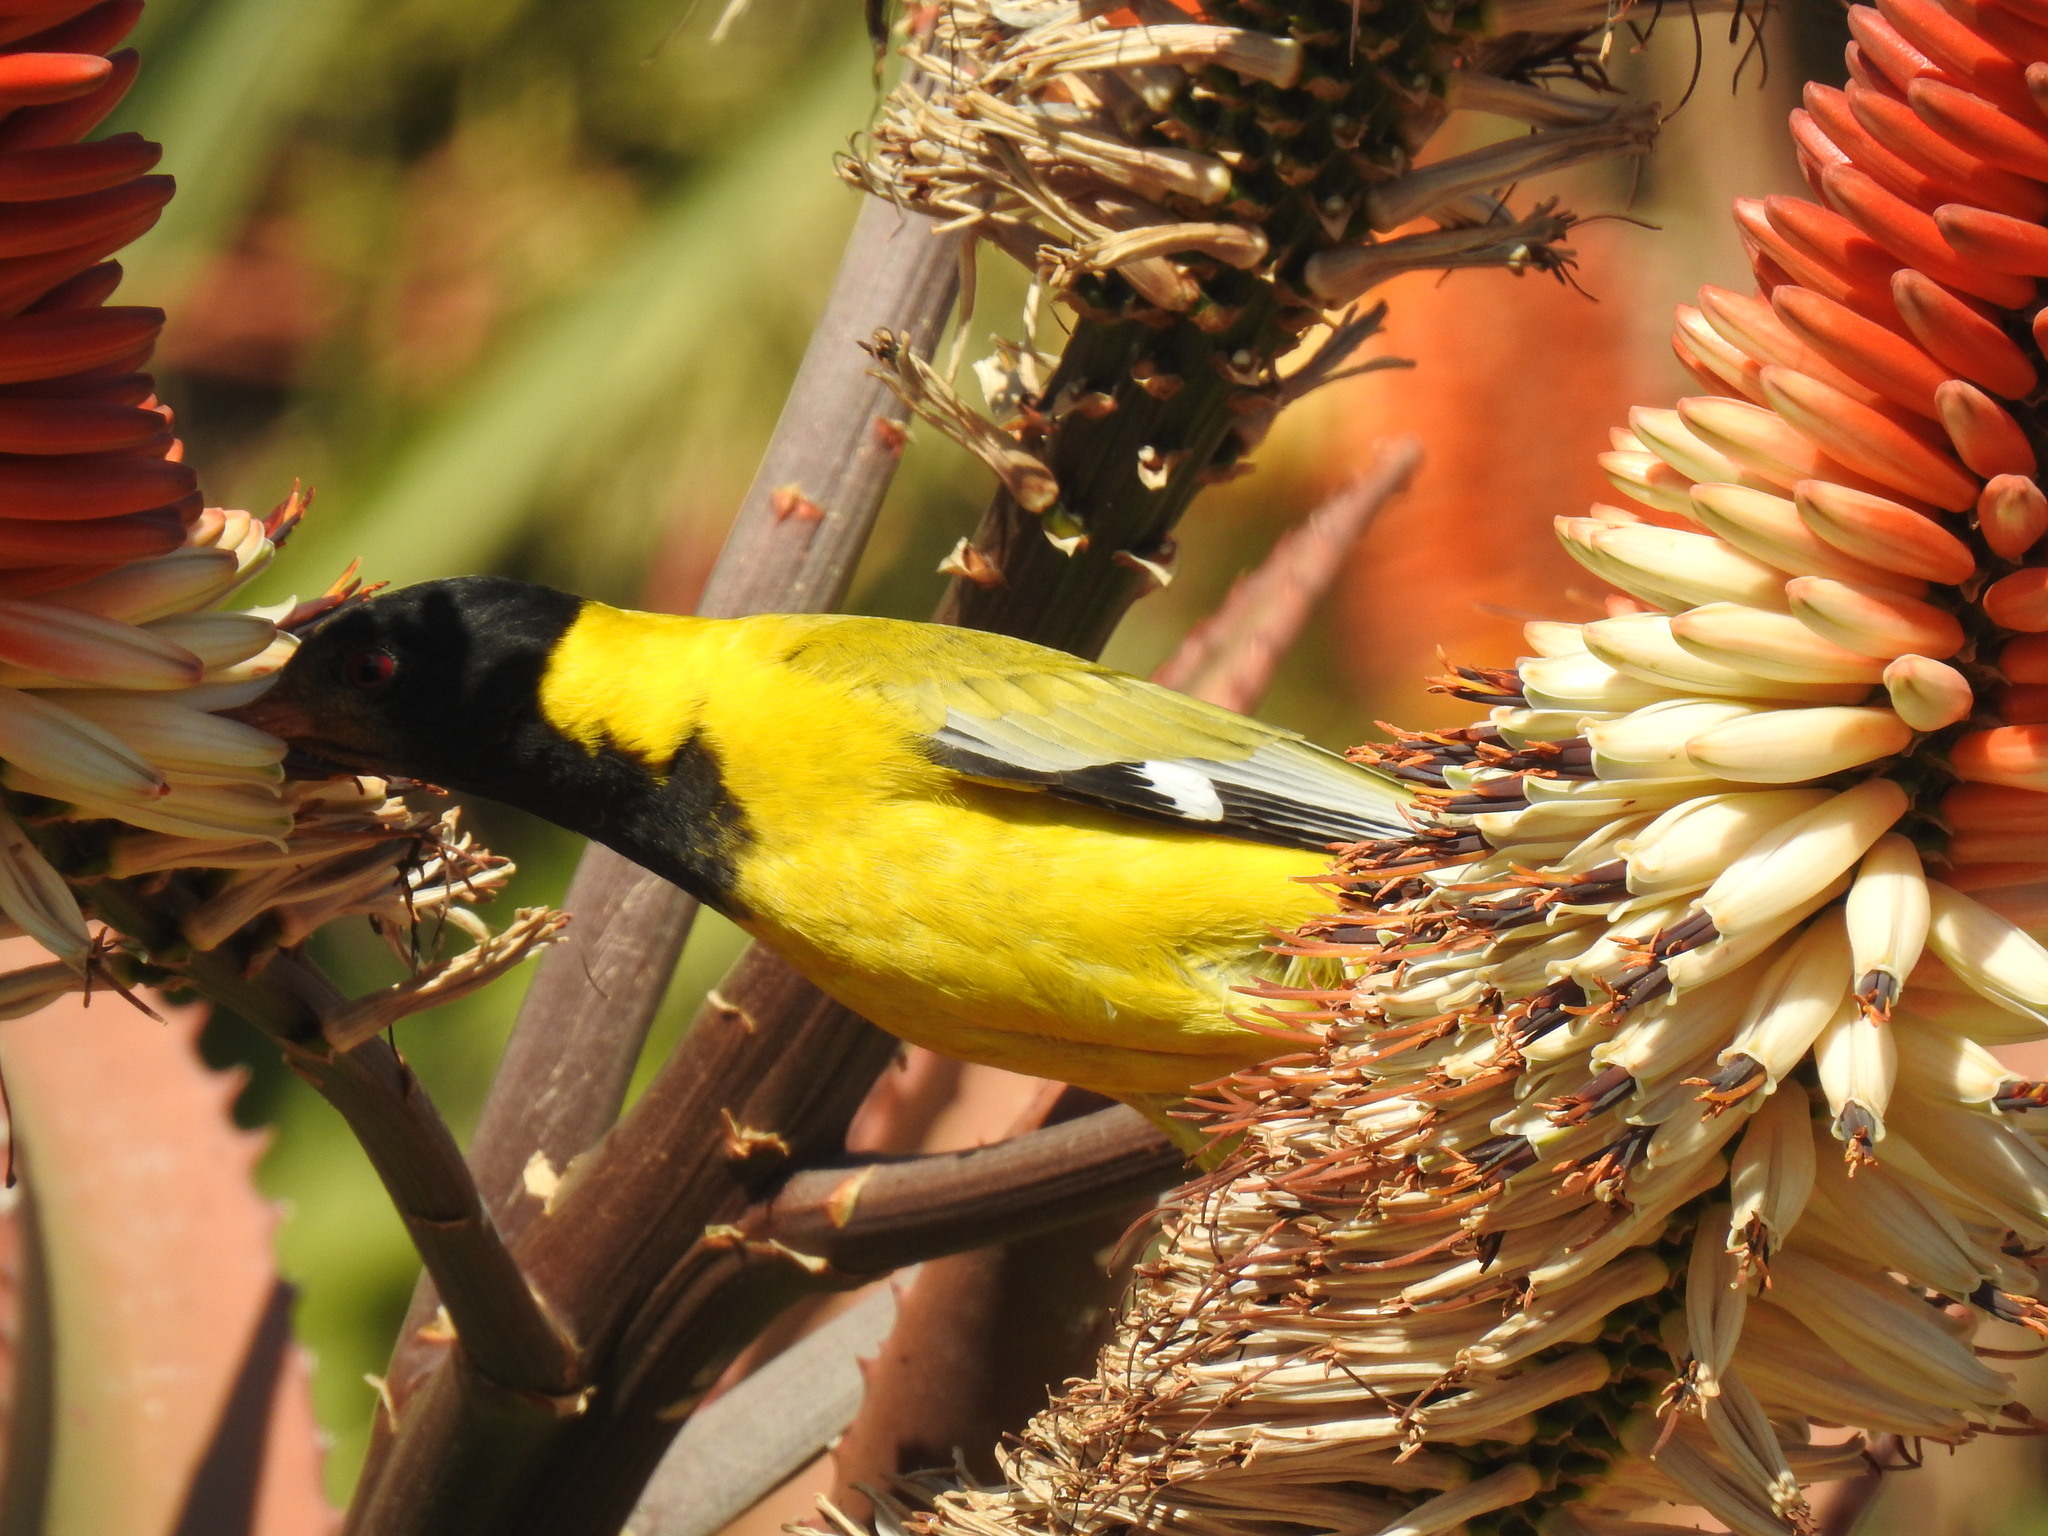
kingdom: Animalia
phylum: Chordata
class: Aves
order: Passeriformes
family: Oriolidae
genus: Oriolus
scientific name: Oriolus larvatus
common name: Black-headed oriole
